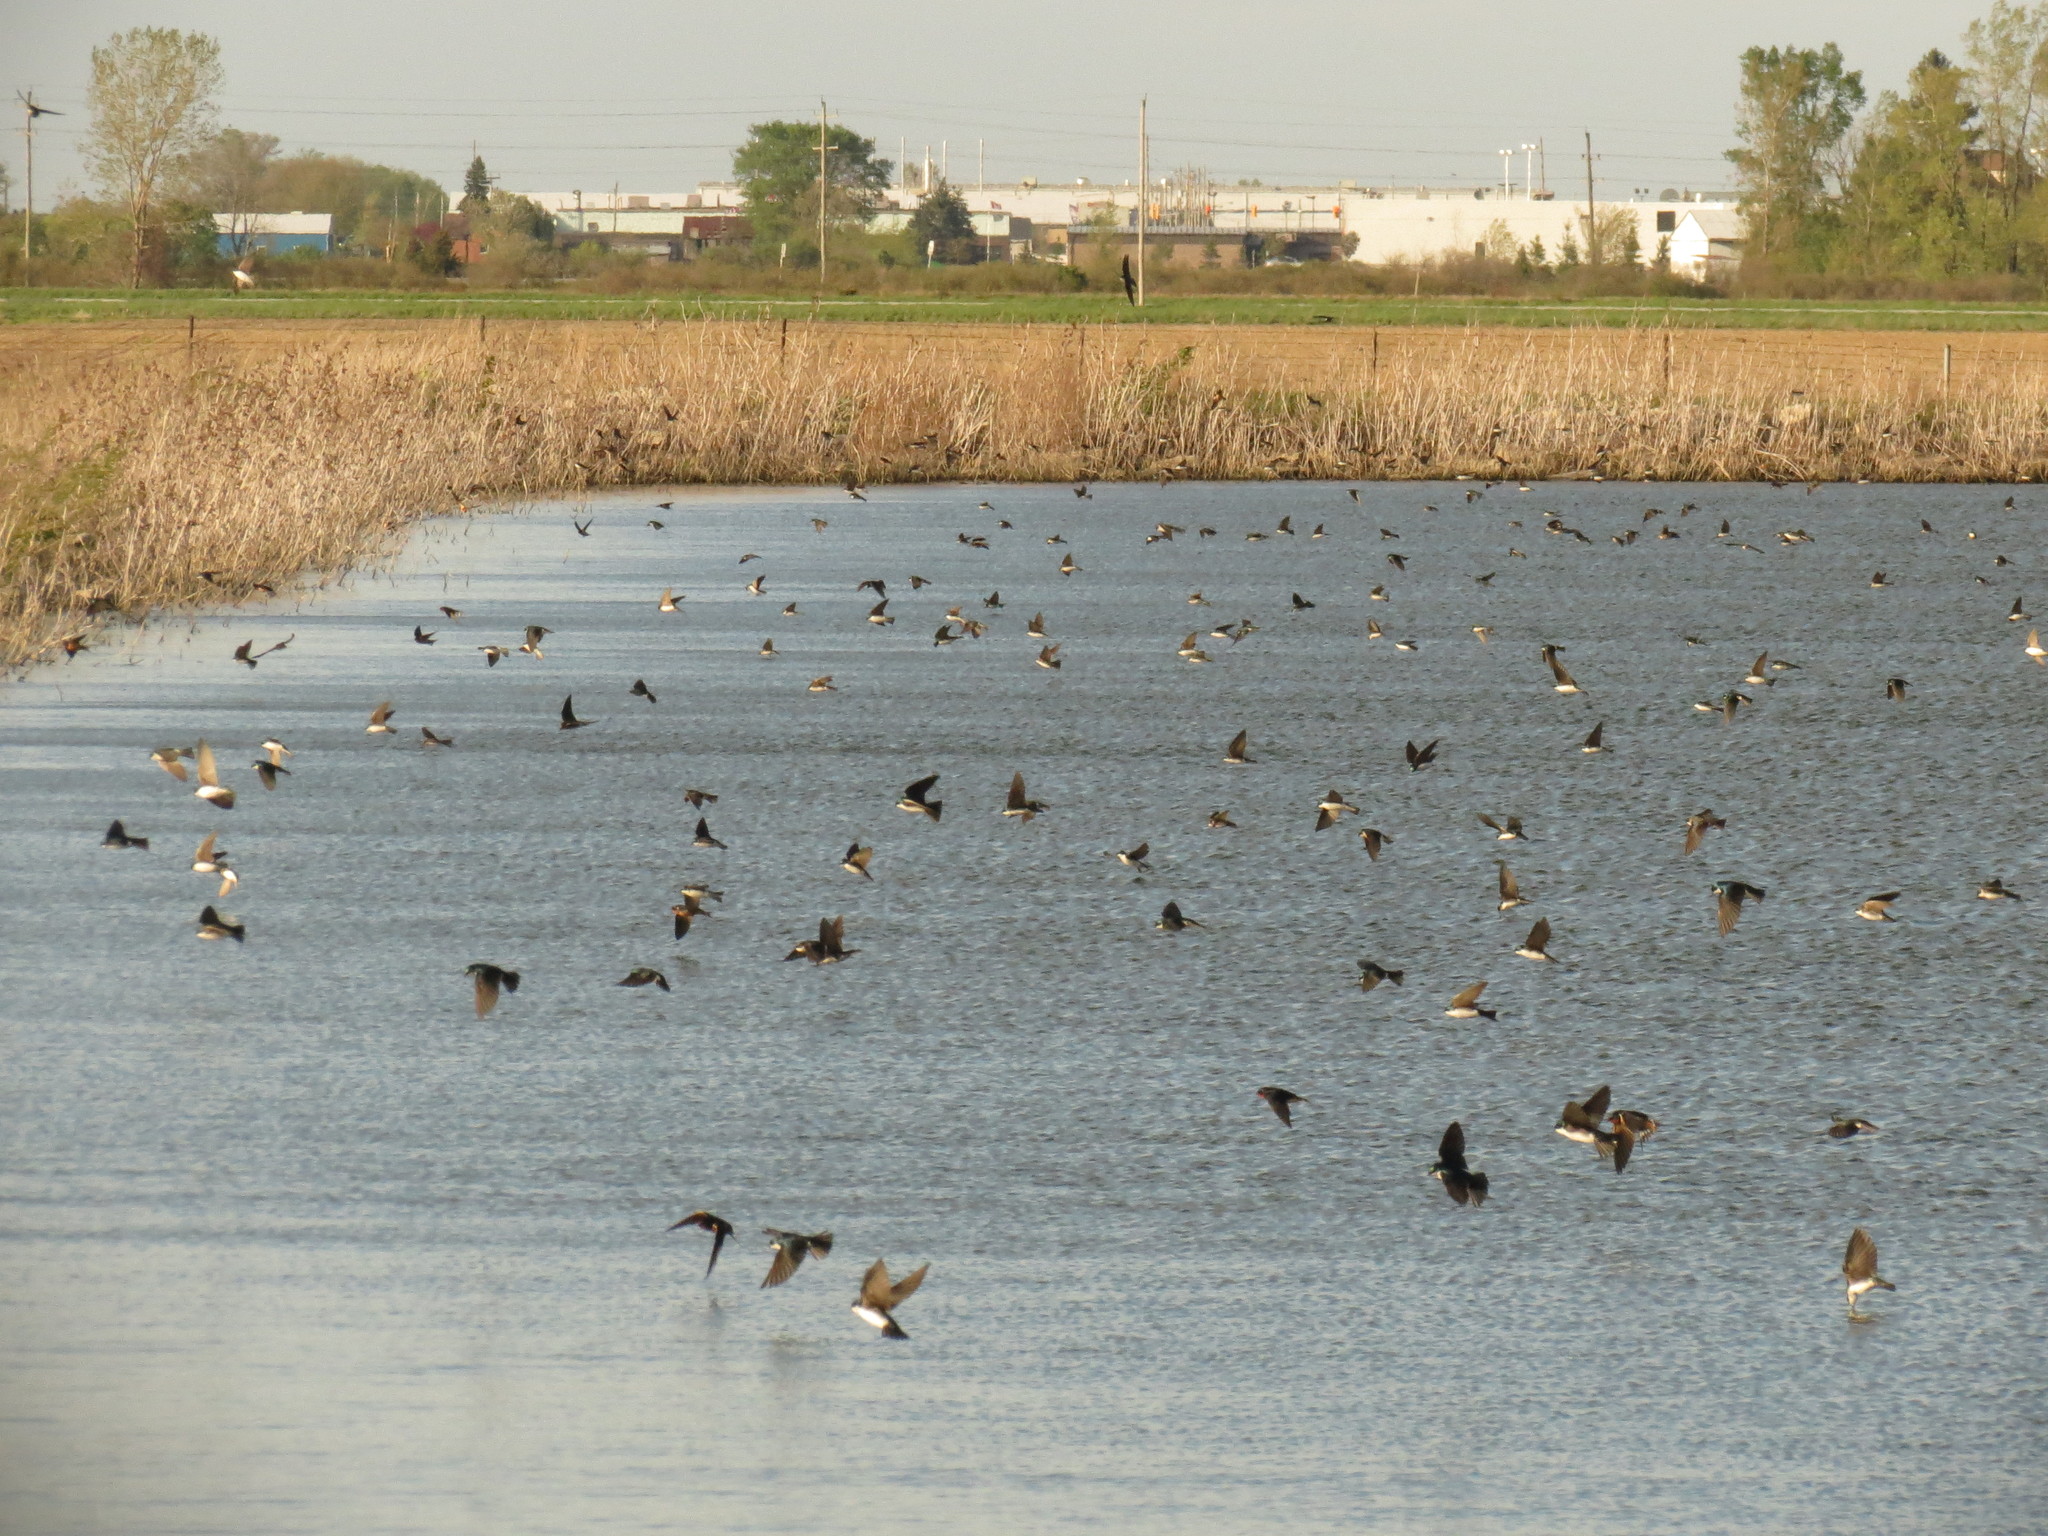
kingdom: Animalia
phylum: Chordata
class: Aves
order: Passeriformes
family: Hirundinidae
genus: Tachycineta
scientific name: Tachycineta bicolor
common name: Tree swallow
